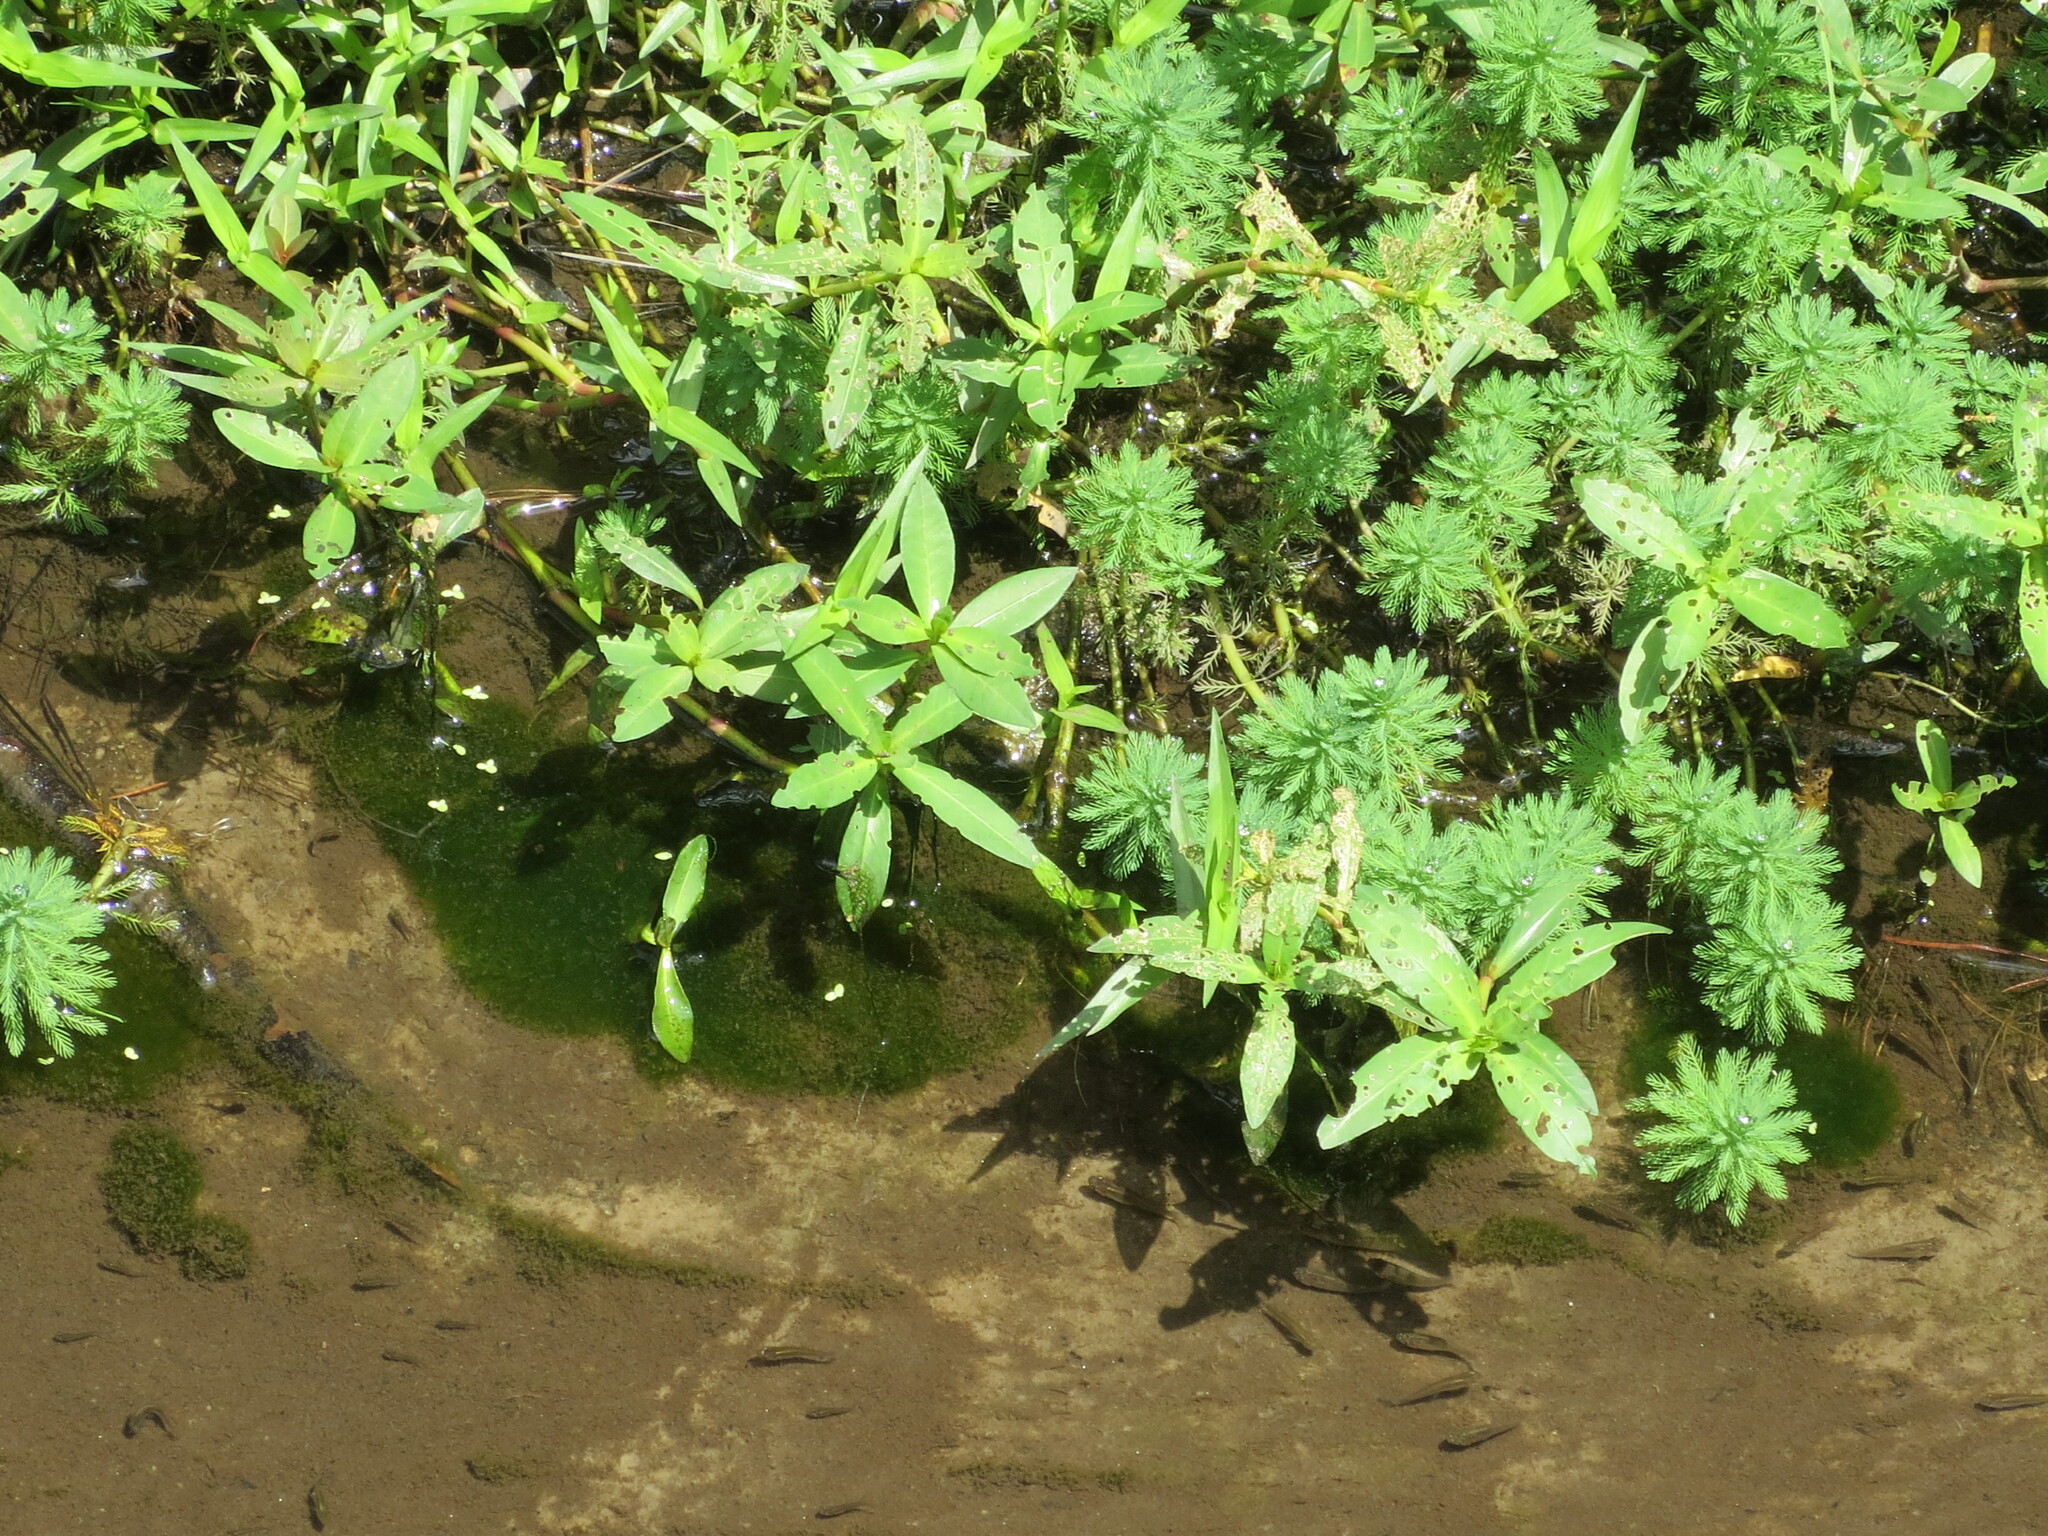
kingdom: Plantae
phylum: Tracheophyta
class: Magnoliopsida
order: Caryophyllales
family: Amaranthaceae
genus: Alternanthera
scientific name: Alternanthera philoxeroides
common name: Alligatorweed
